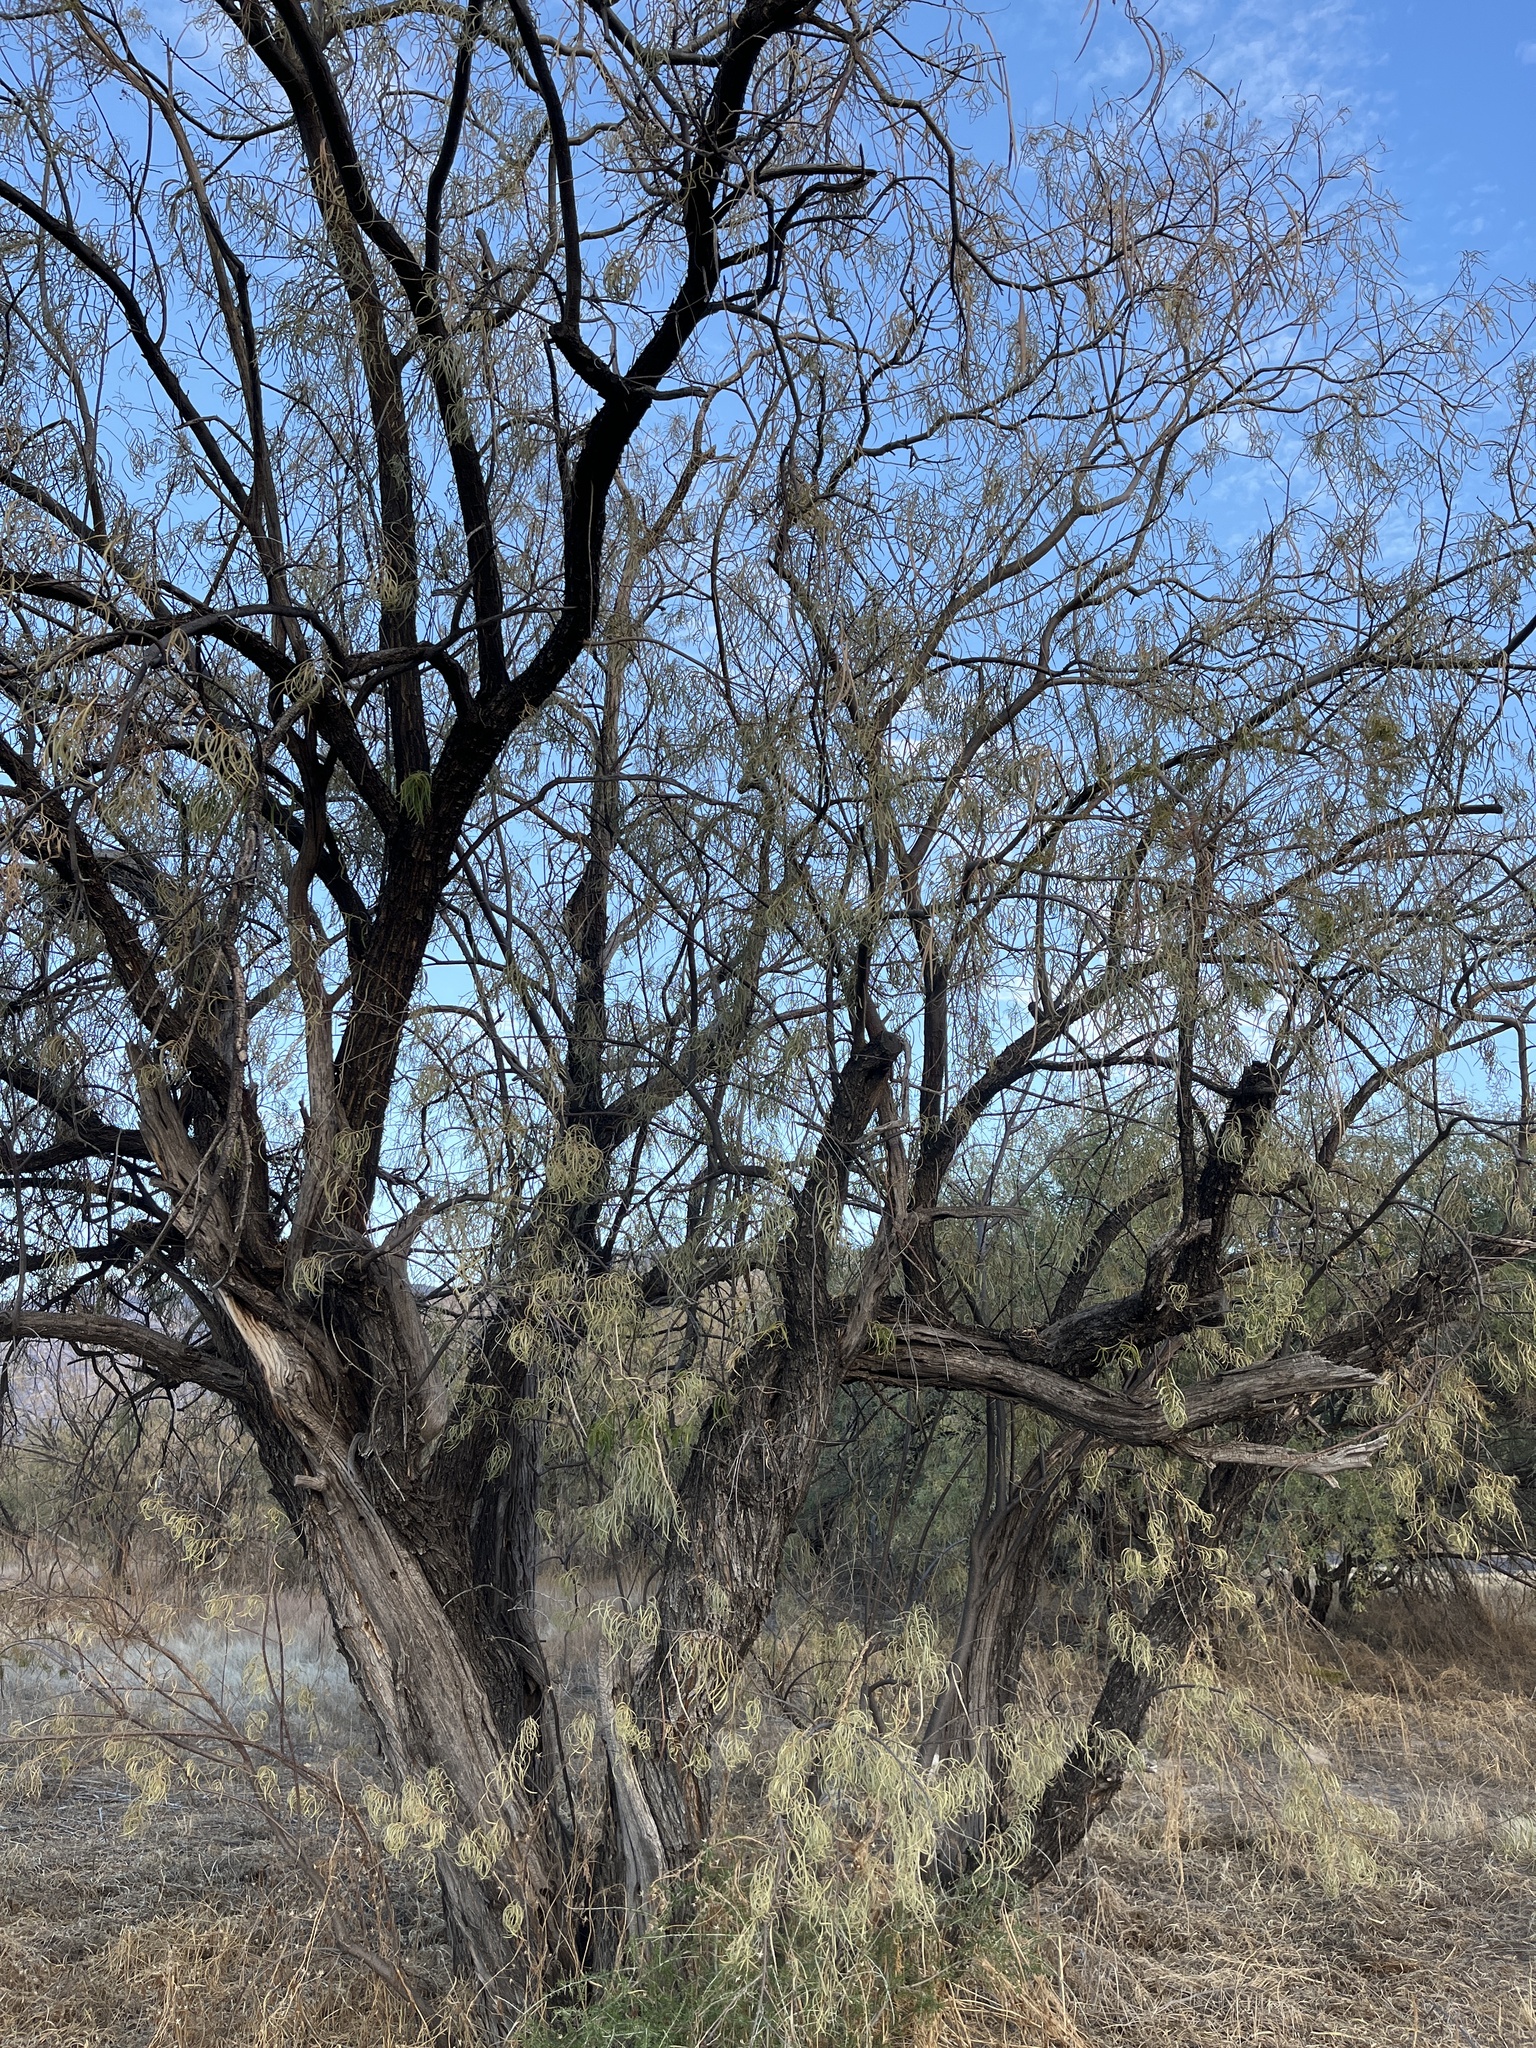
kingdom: Plantae
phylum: Tracheophyta
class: Magnoliopsida
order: Lamiales
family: Bignoniaceae
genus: Chilopsis
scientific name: Chilopsis linearis
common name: Desert-willow
